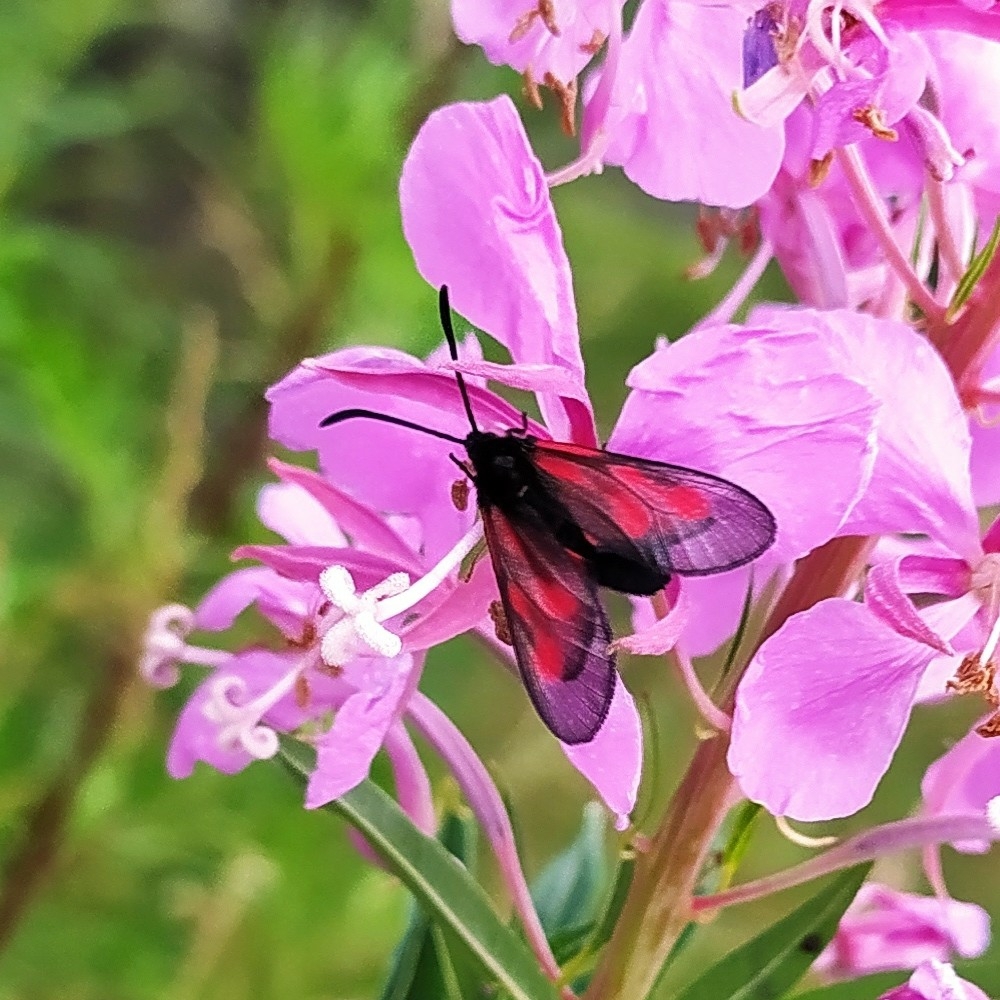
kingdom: Animalia
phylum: Arthropoda
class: Insecta
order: Lepidoptera
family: Zygaenidae
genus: Zygaena
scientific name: Zygaena osterodensis
